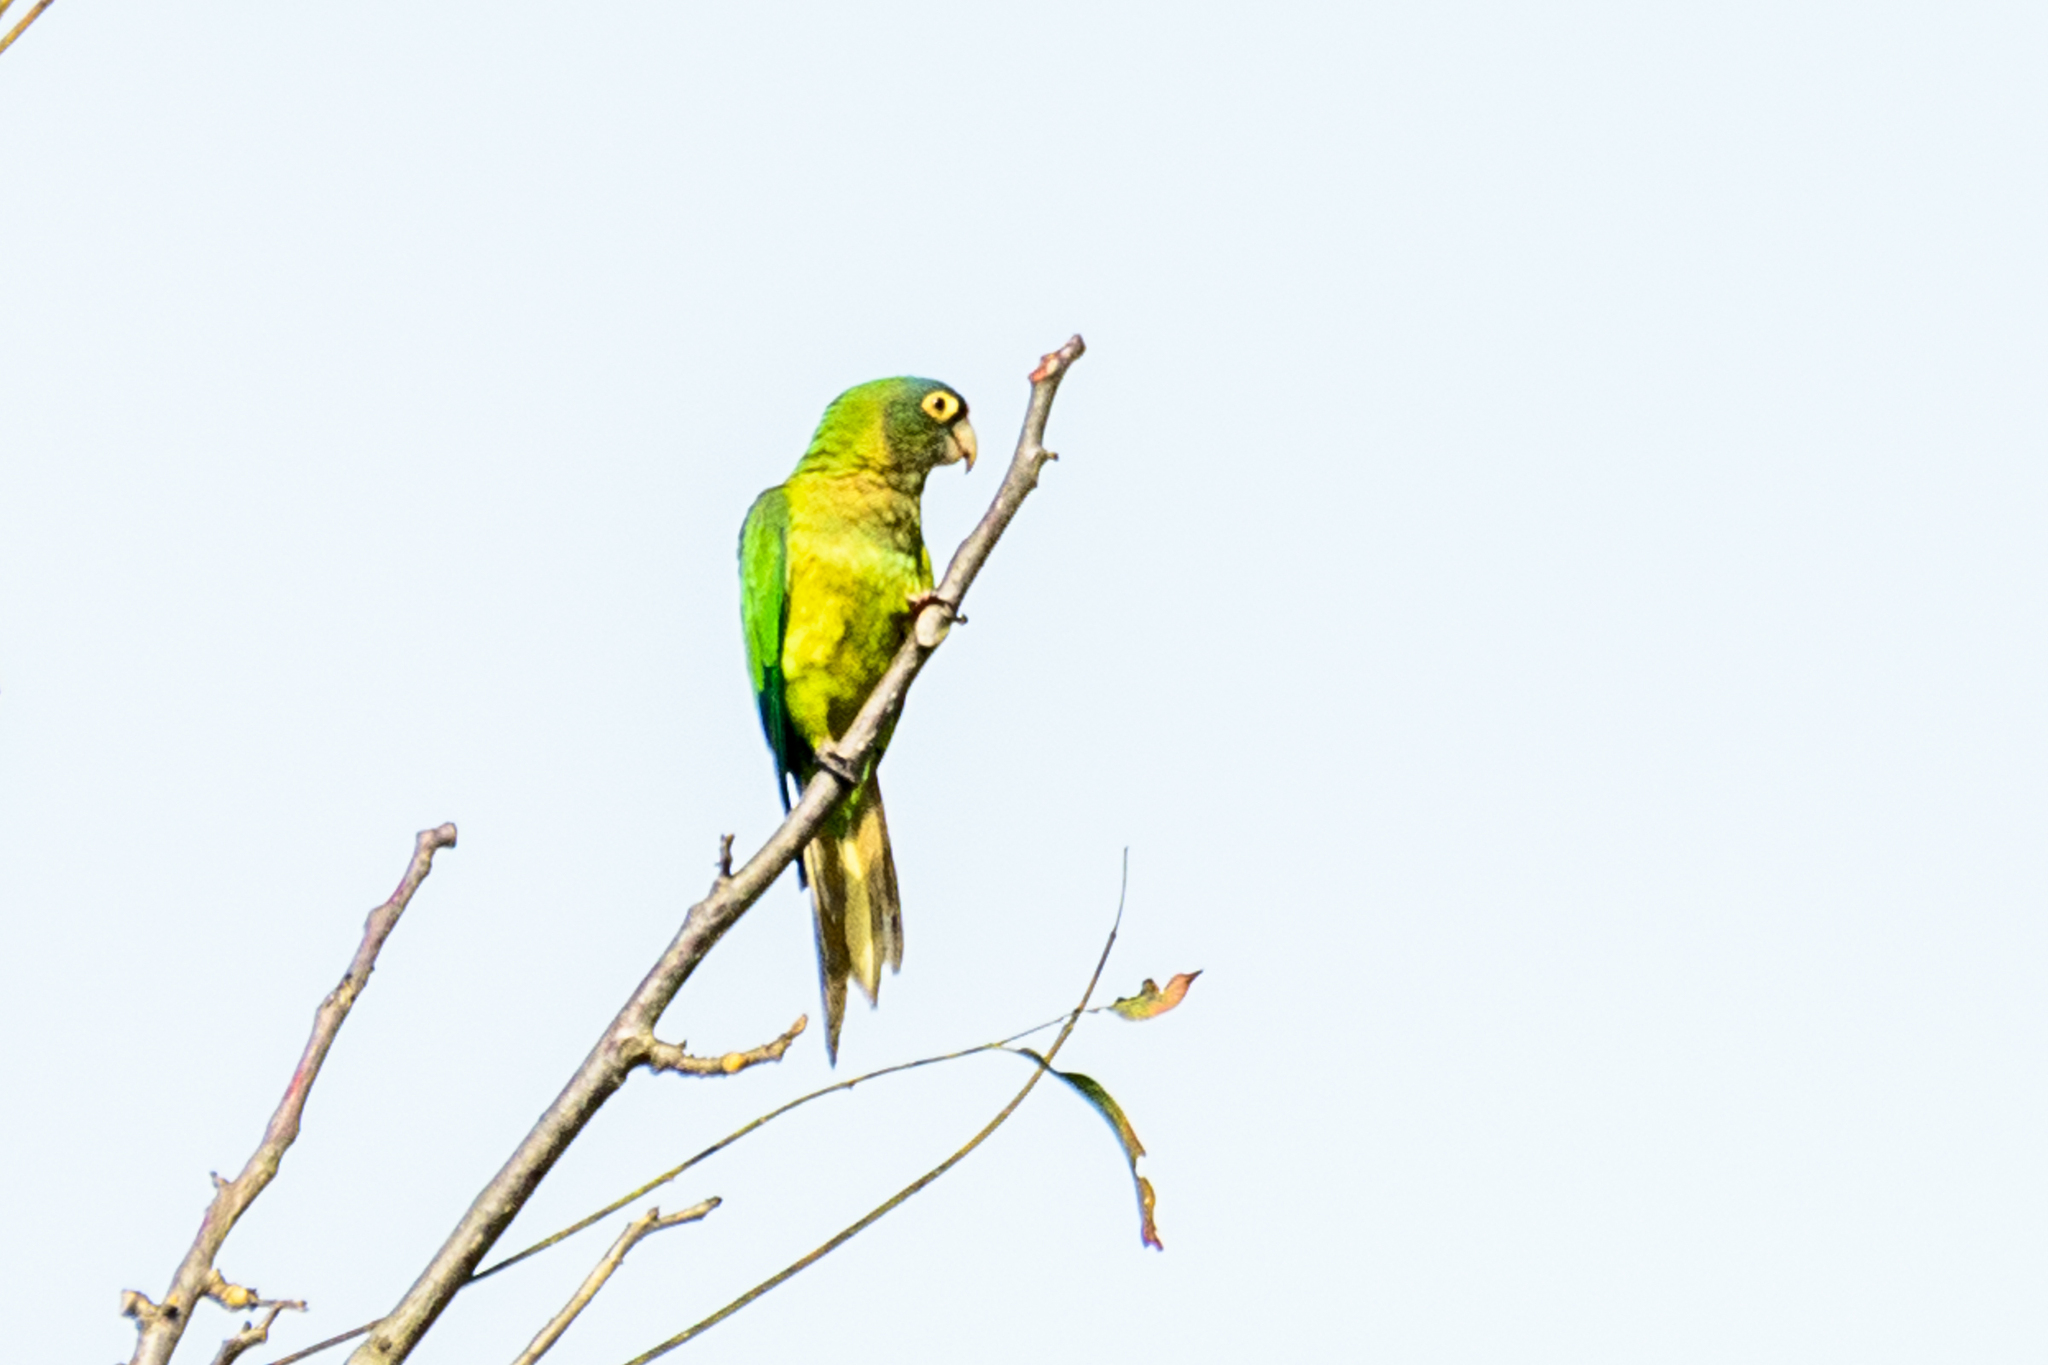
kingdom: Animalia
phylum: Chordata
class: Aves
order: Psittaciformes
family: Psittacidae
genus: Aratinga
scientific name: Aratinga canicularis
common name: Orange-fronted parakeet
